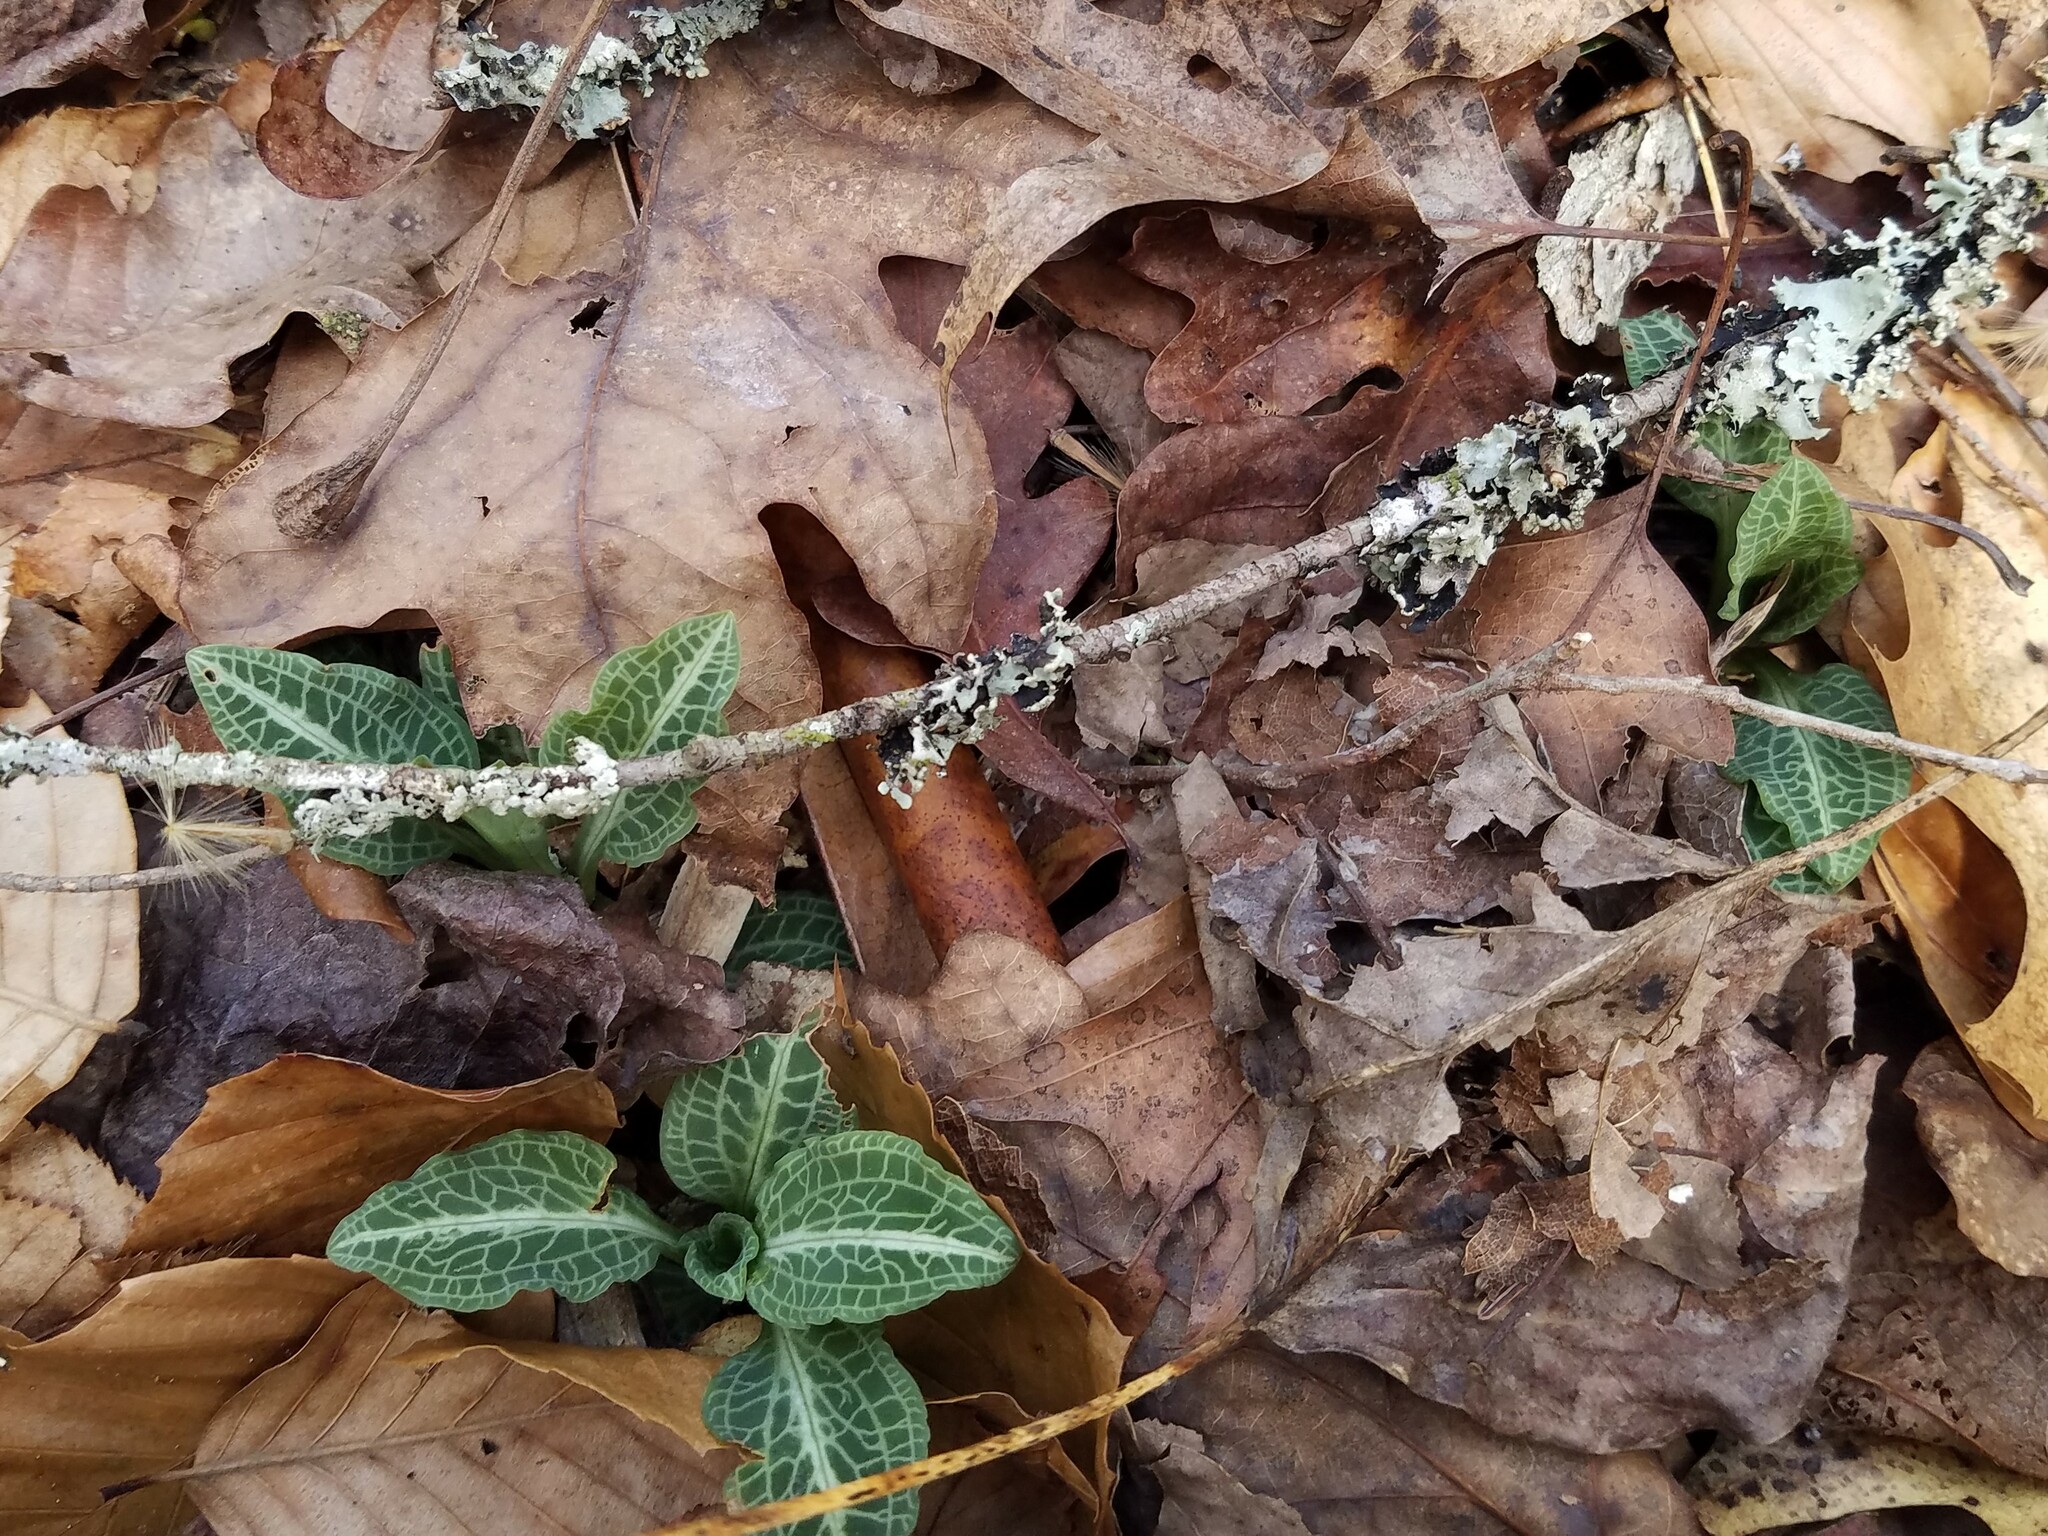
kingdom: Plantae
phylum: Tracheophyta
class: Liliopsida
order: Asparagales
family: Orchidaceae
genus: Goodyera
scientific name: Goodyera pubescens
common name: Downy rattlesnake-plantain
